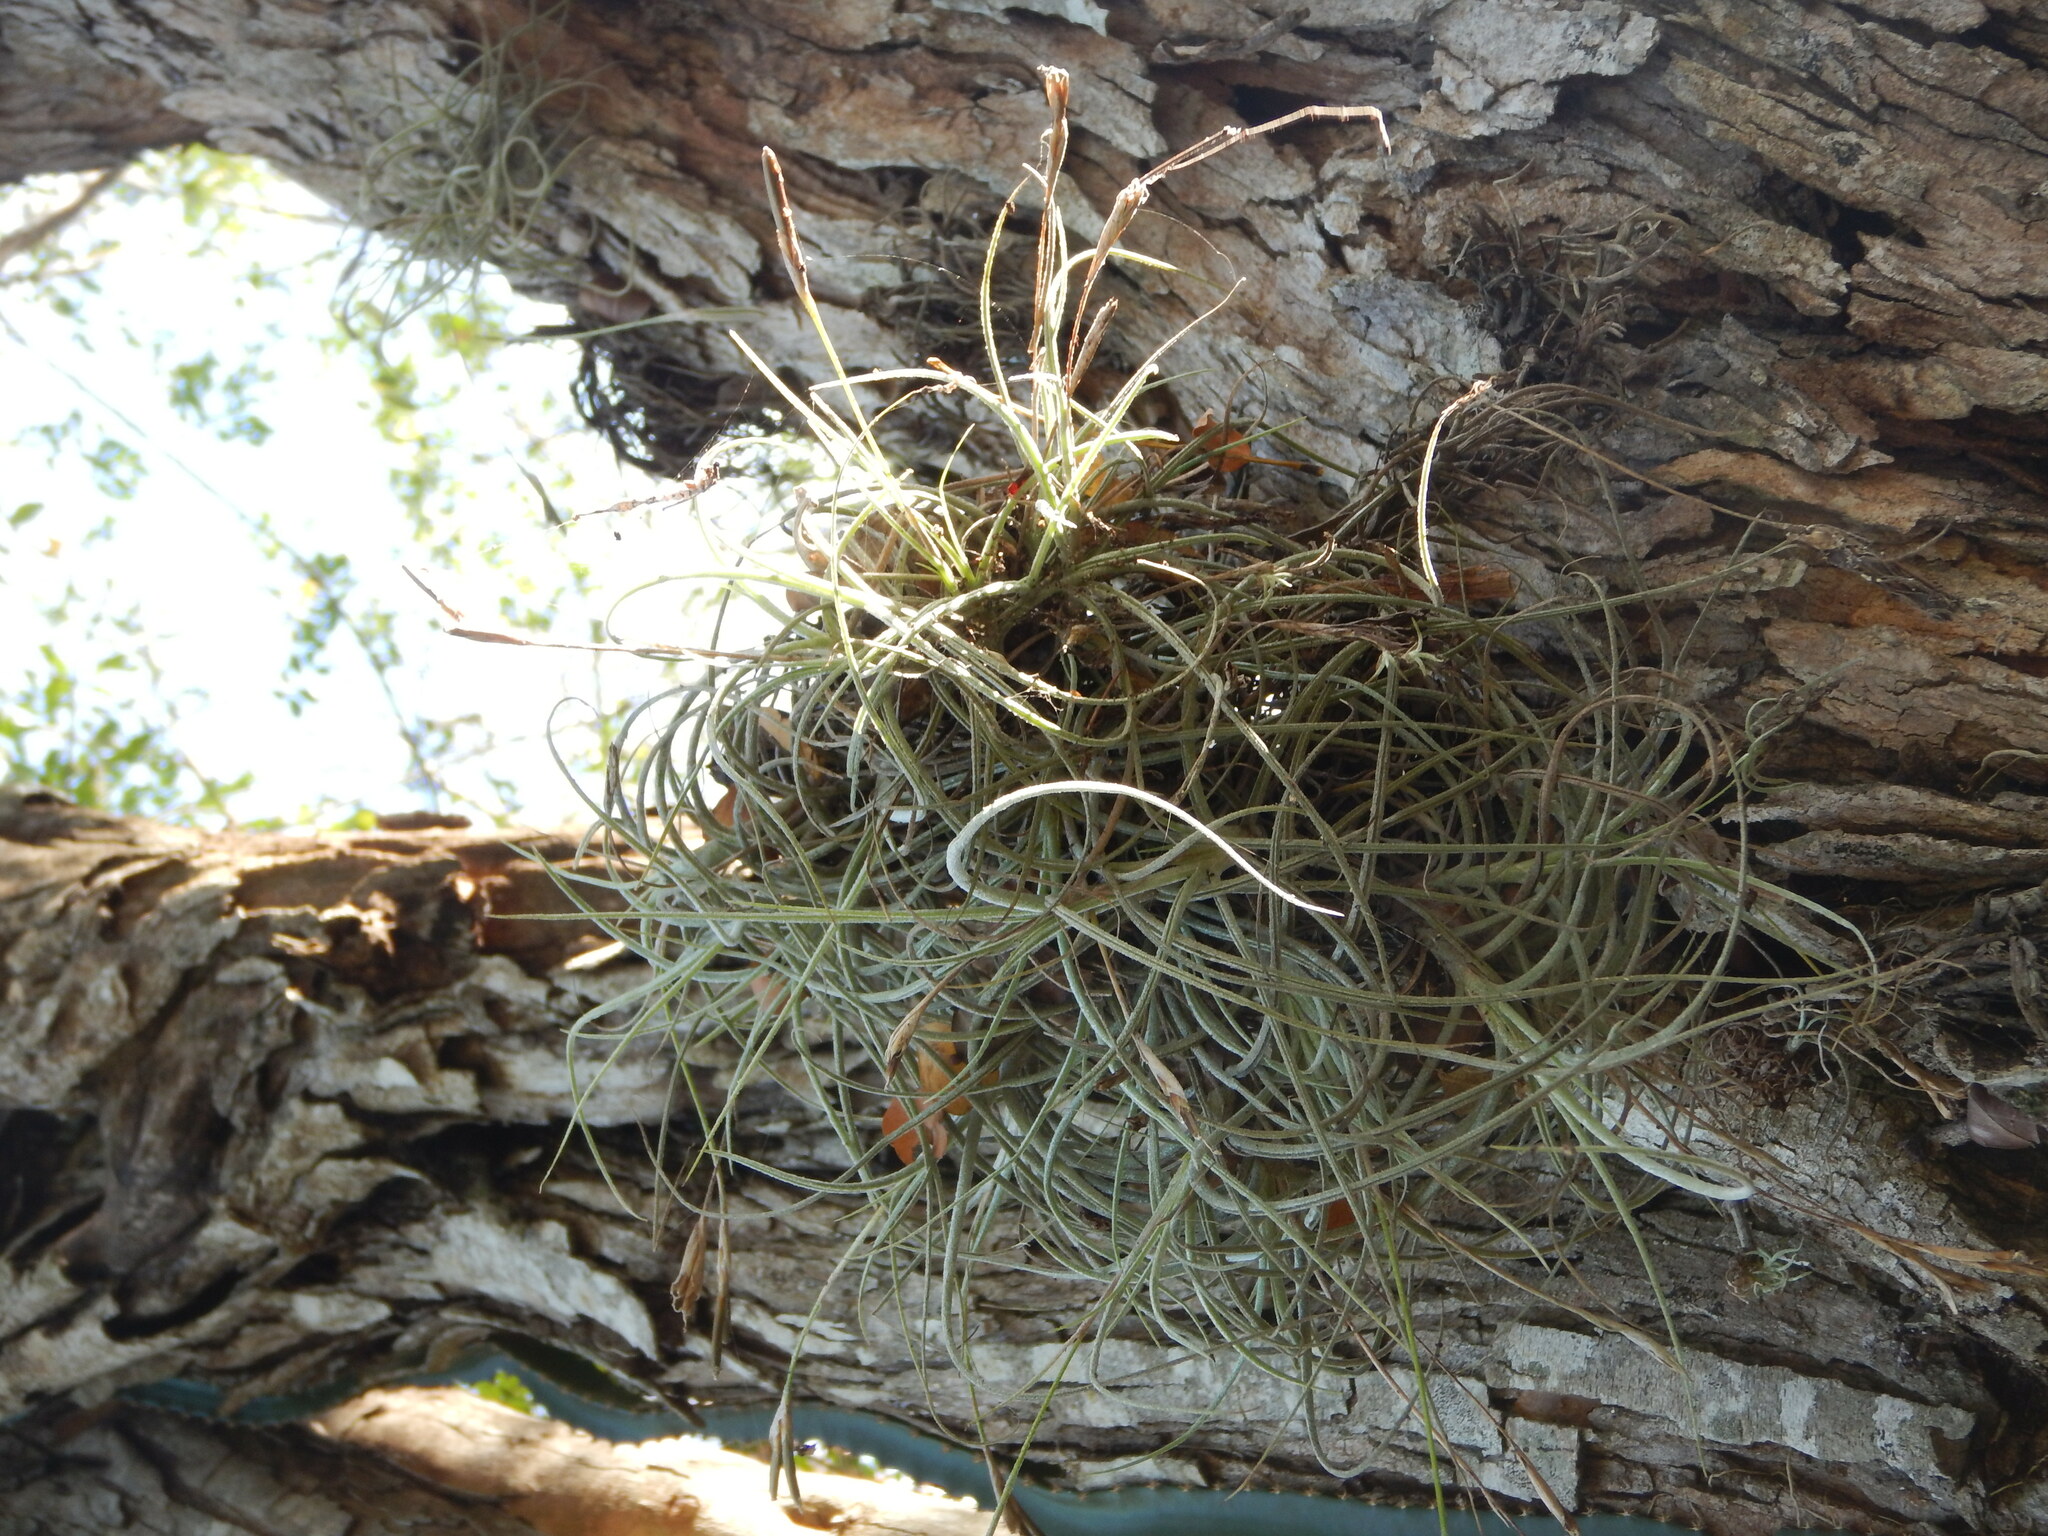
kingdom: Plantae
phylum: Tracheophyta
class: Liliopsida
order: Poales
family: Bromeliaceae
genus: Tillandsia
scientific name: Tillandsia recurvata
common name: Small ballmoss
